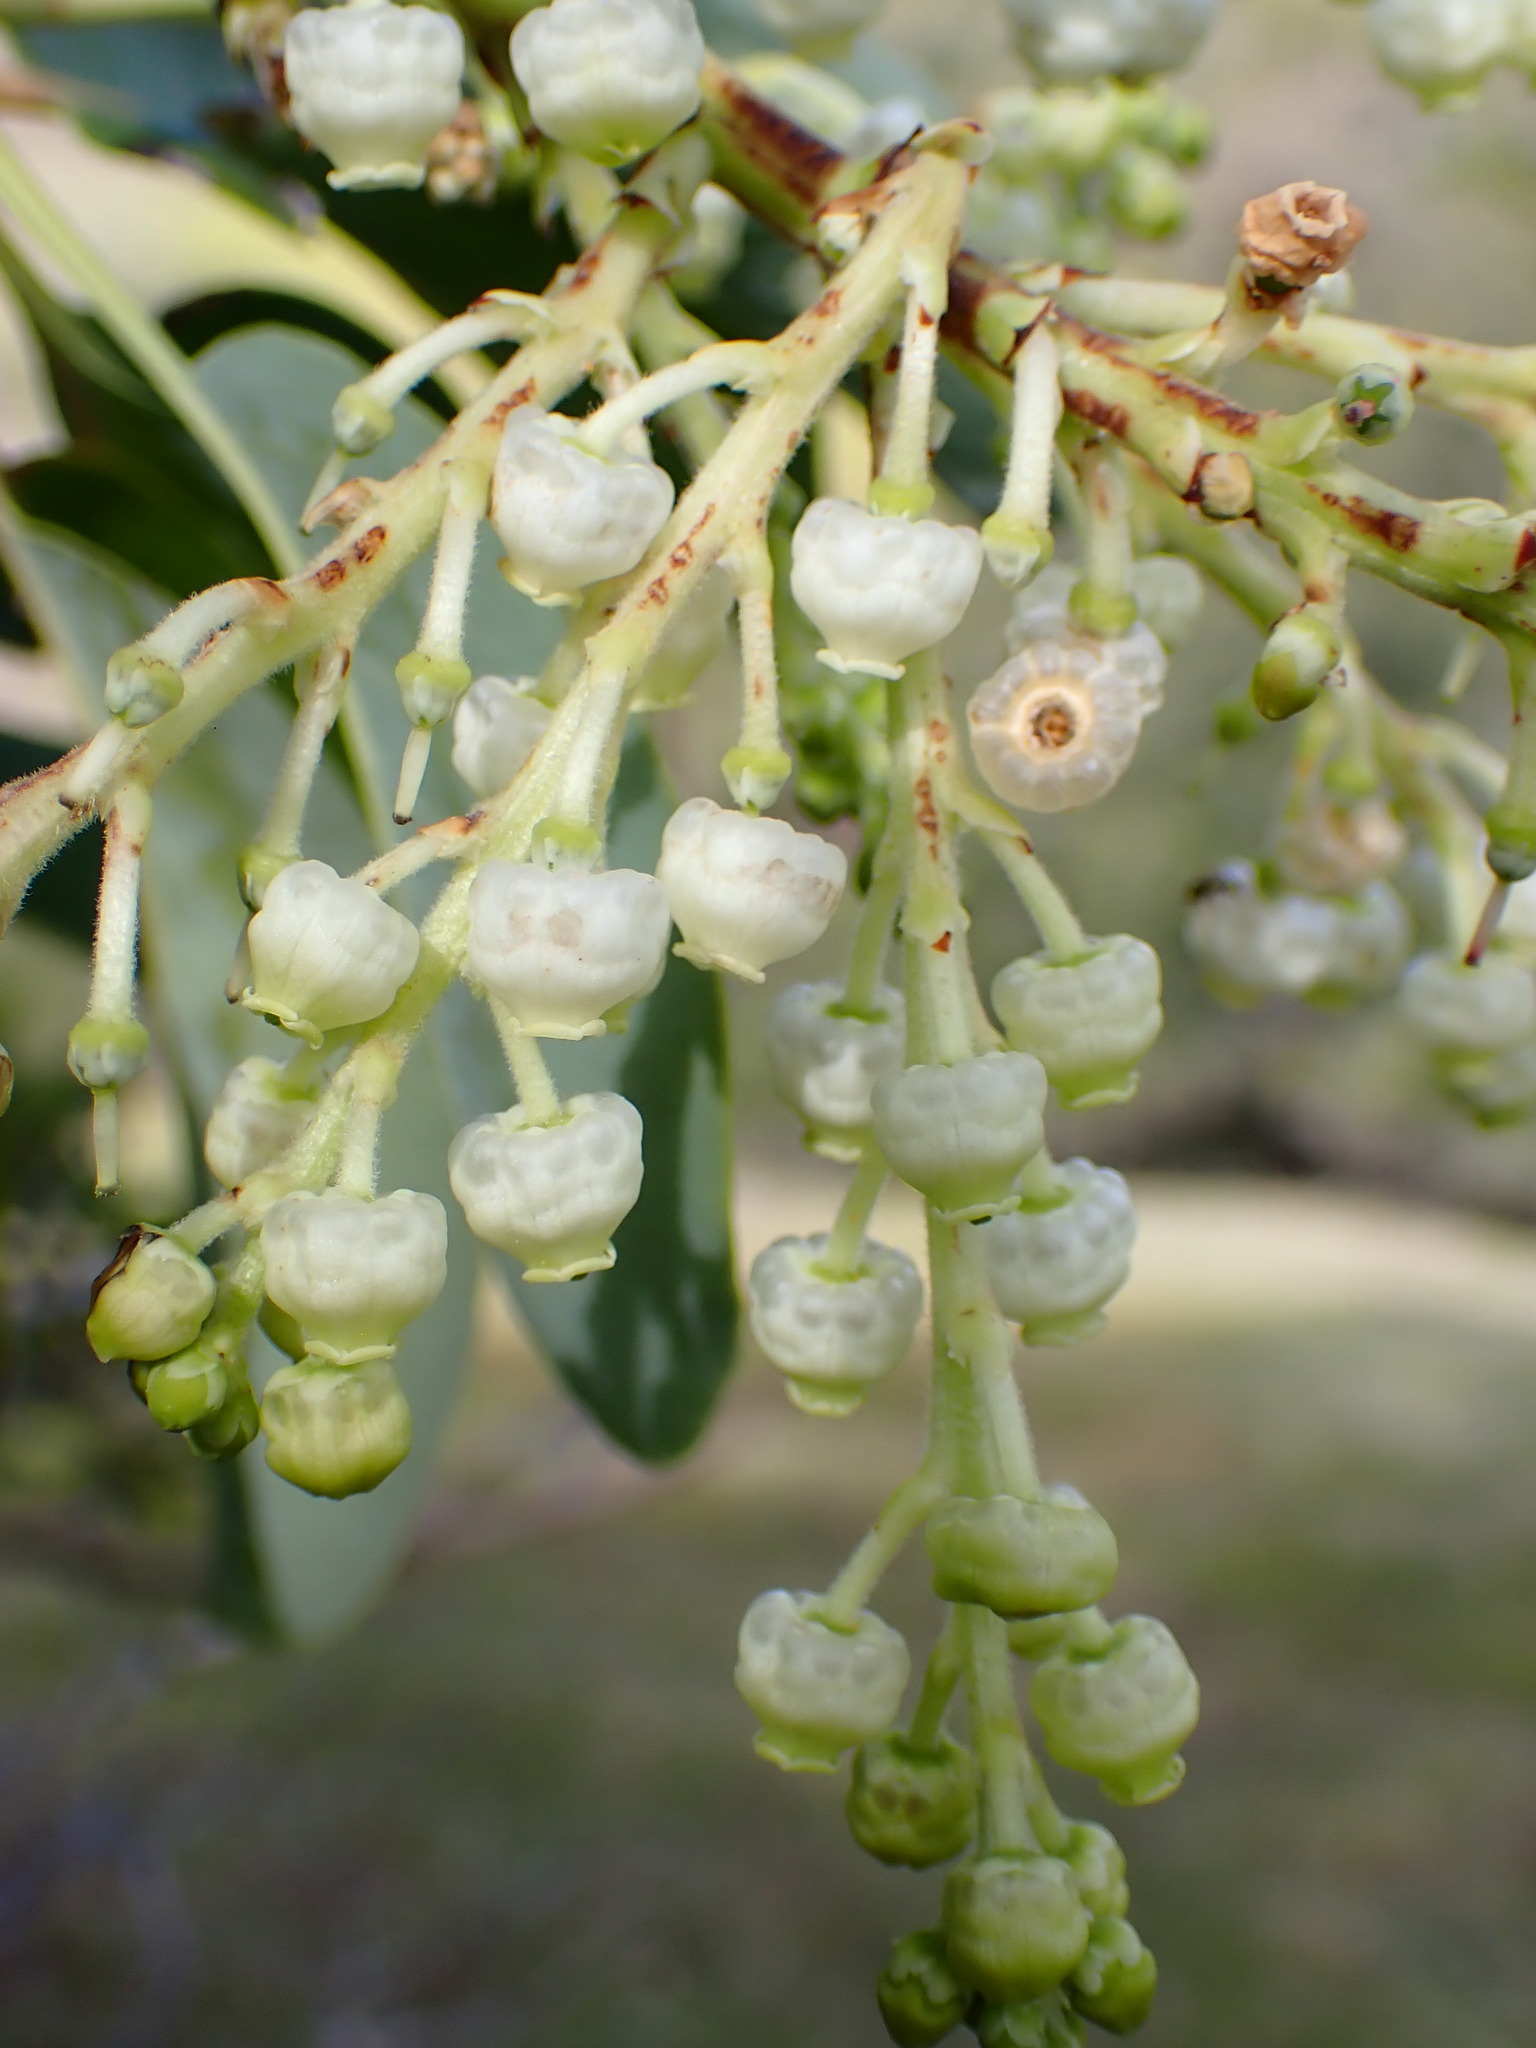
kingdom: Plantae
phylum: Tracheophyta
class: Magnoliopsida
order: Ericales
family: Ericaceae
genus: Arbutus
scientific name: Arbutus menziesii
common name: Pacific madrone
